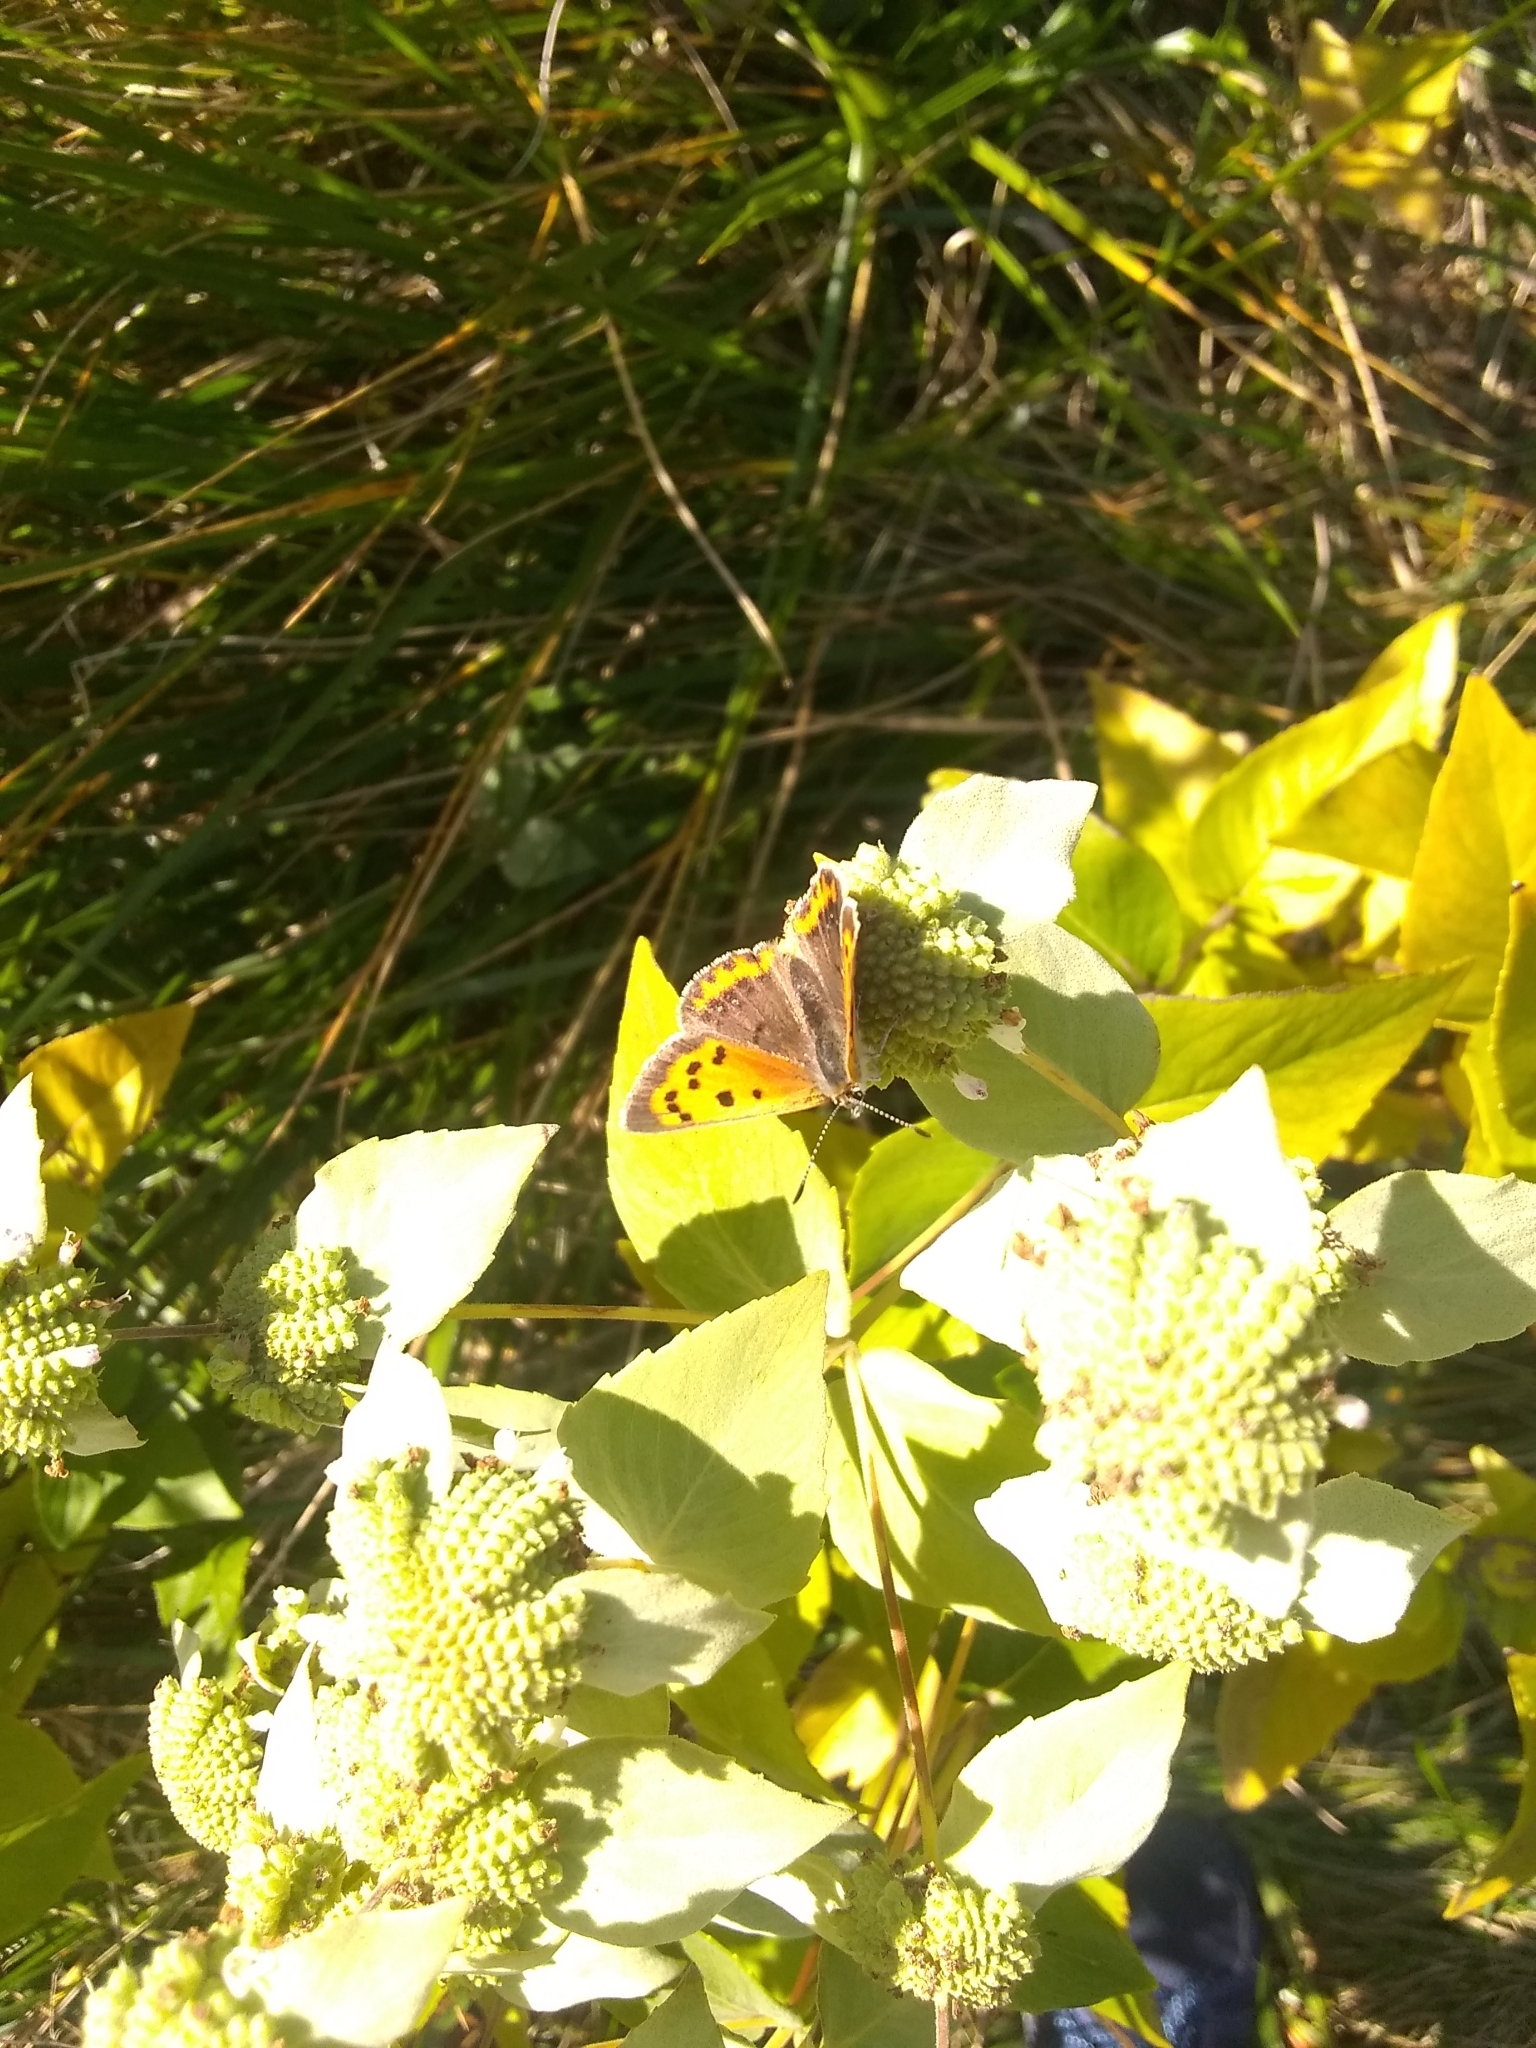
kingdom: Animalia
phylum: Arthropoda
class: Insecta
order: Lepidoptera
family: Lycaenidae
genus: Lycaena
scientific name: Lycaena hypophlaeas
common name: American copper
